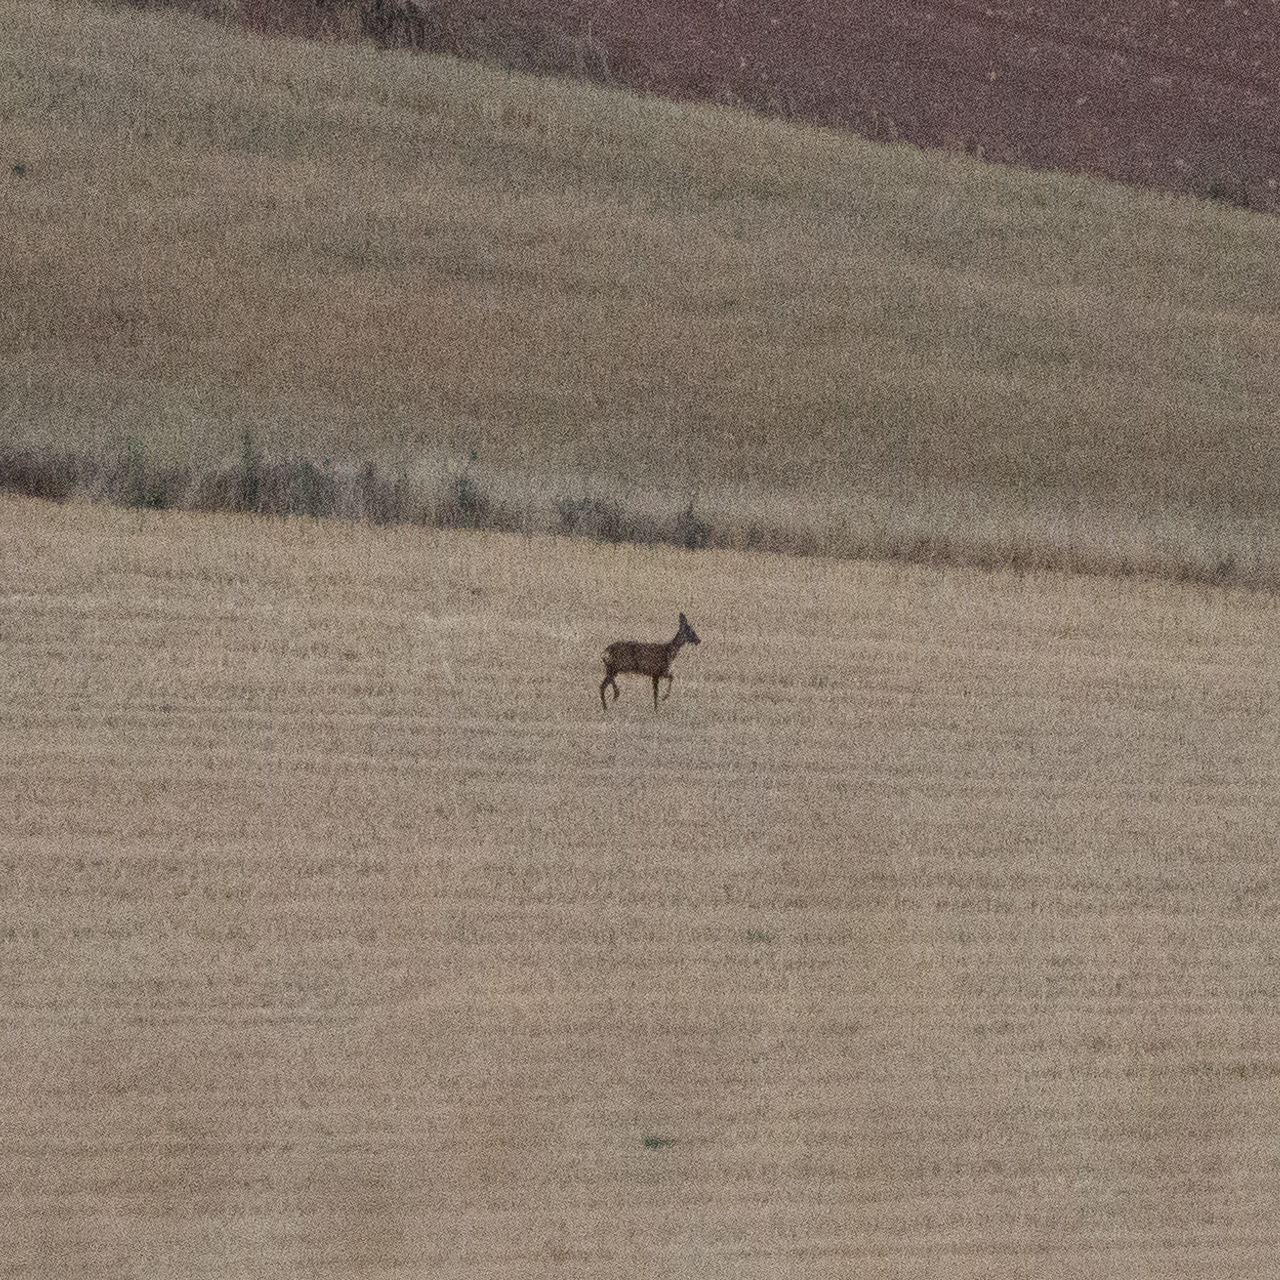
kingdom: Animalia
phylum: Chordata
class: Mammalia
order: Artiodactyla
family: Cervidae
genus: Capreolus
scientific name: Capreolus capreolus
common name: Western roe deer
